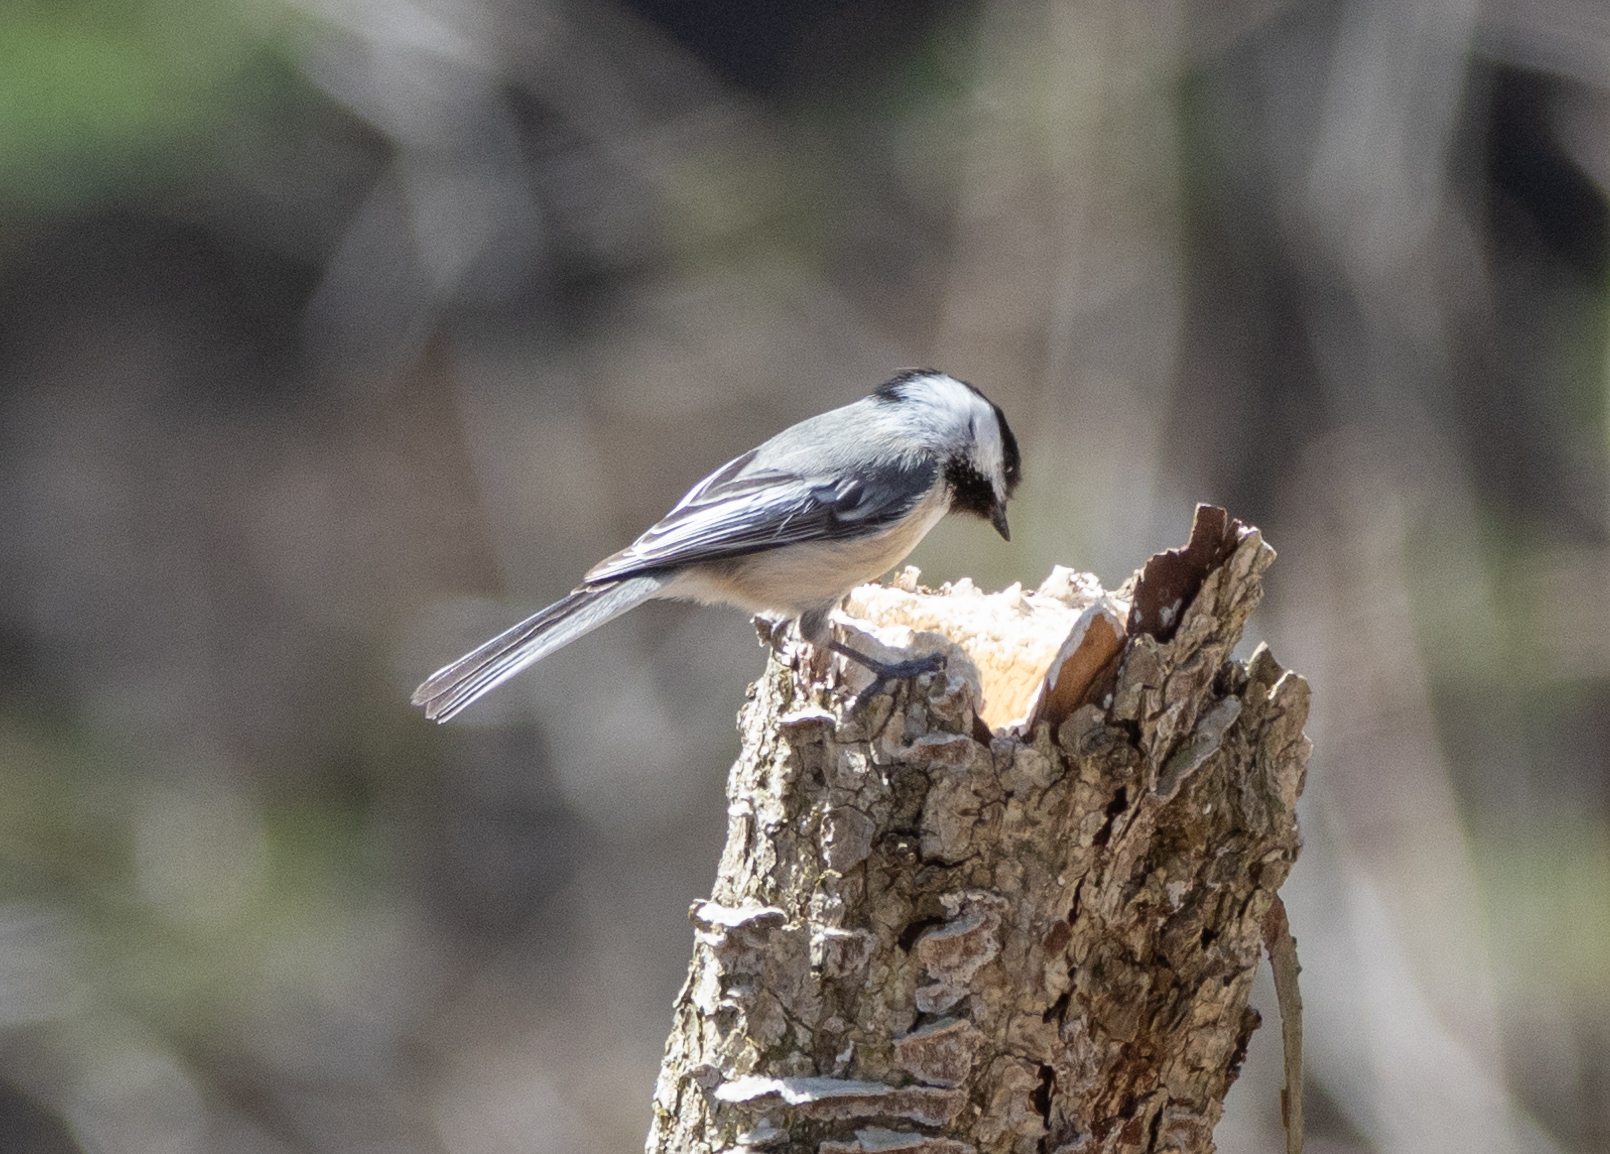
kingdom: Animalia
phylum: Chordata
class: Aves
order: Passeriformes
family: Paridae
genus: Poecile
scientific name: Poecile atricapillus
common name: Black-capped chickadee
